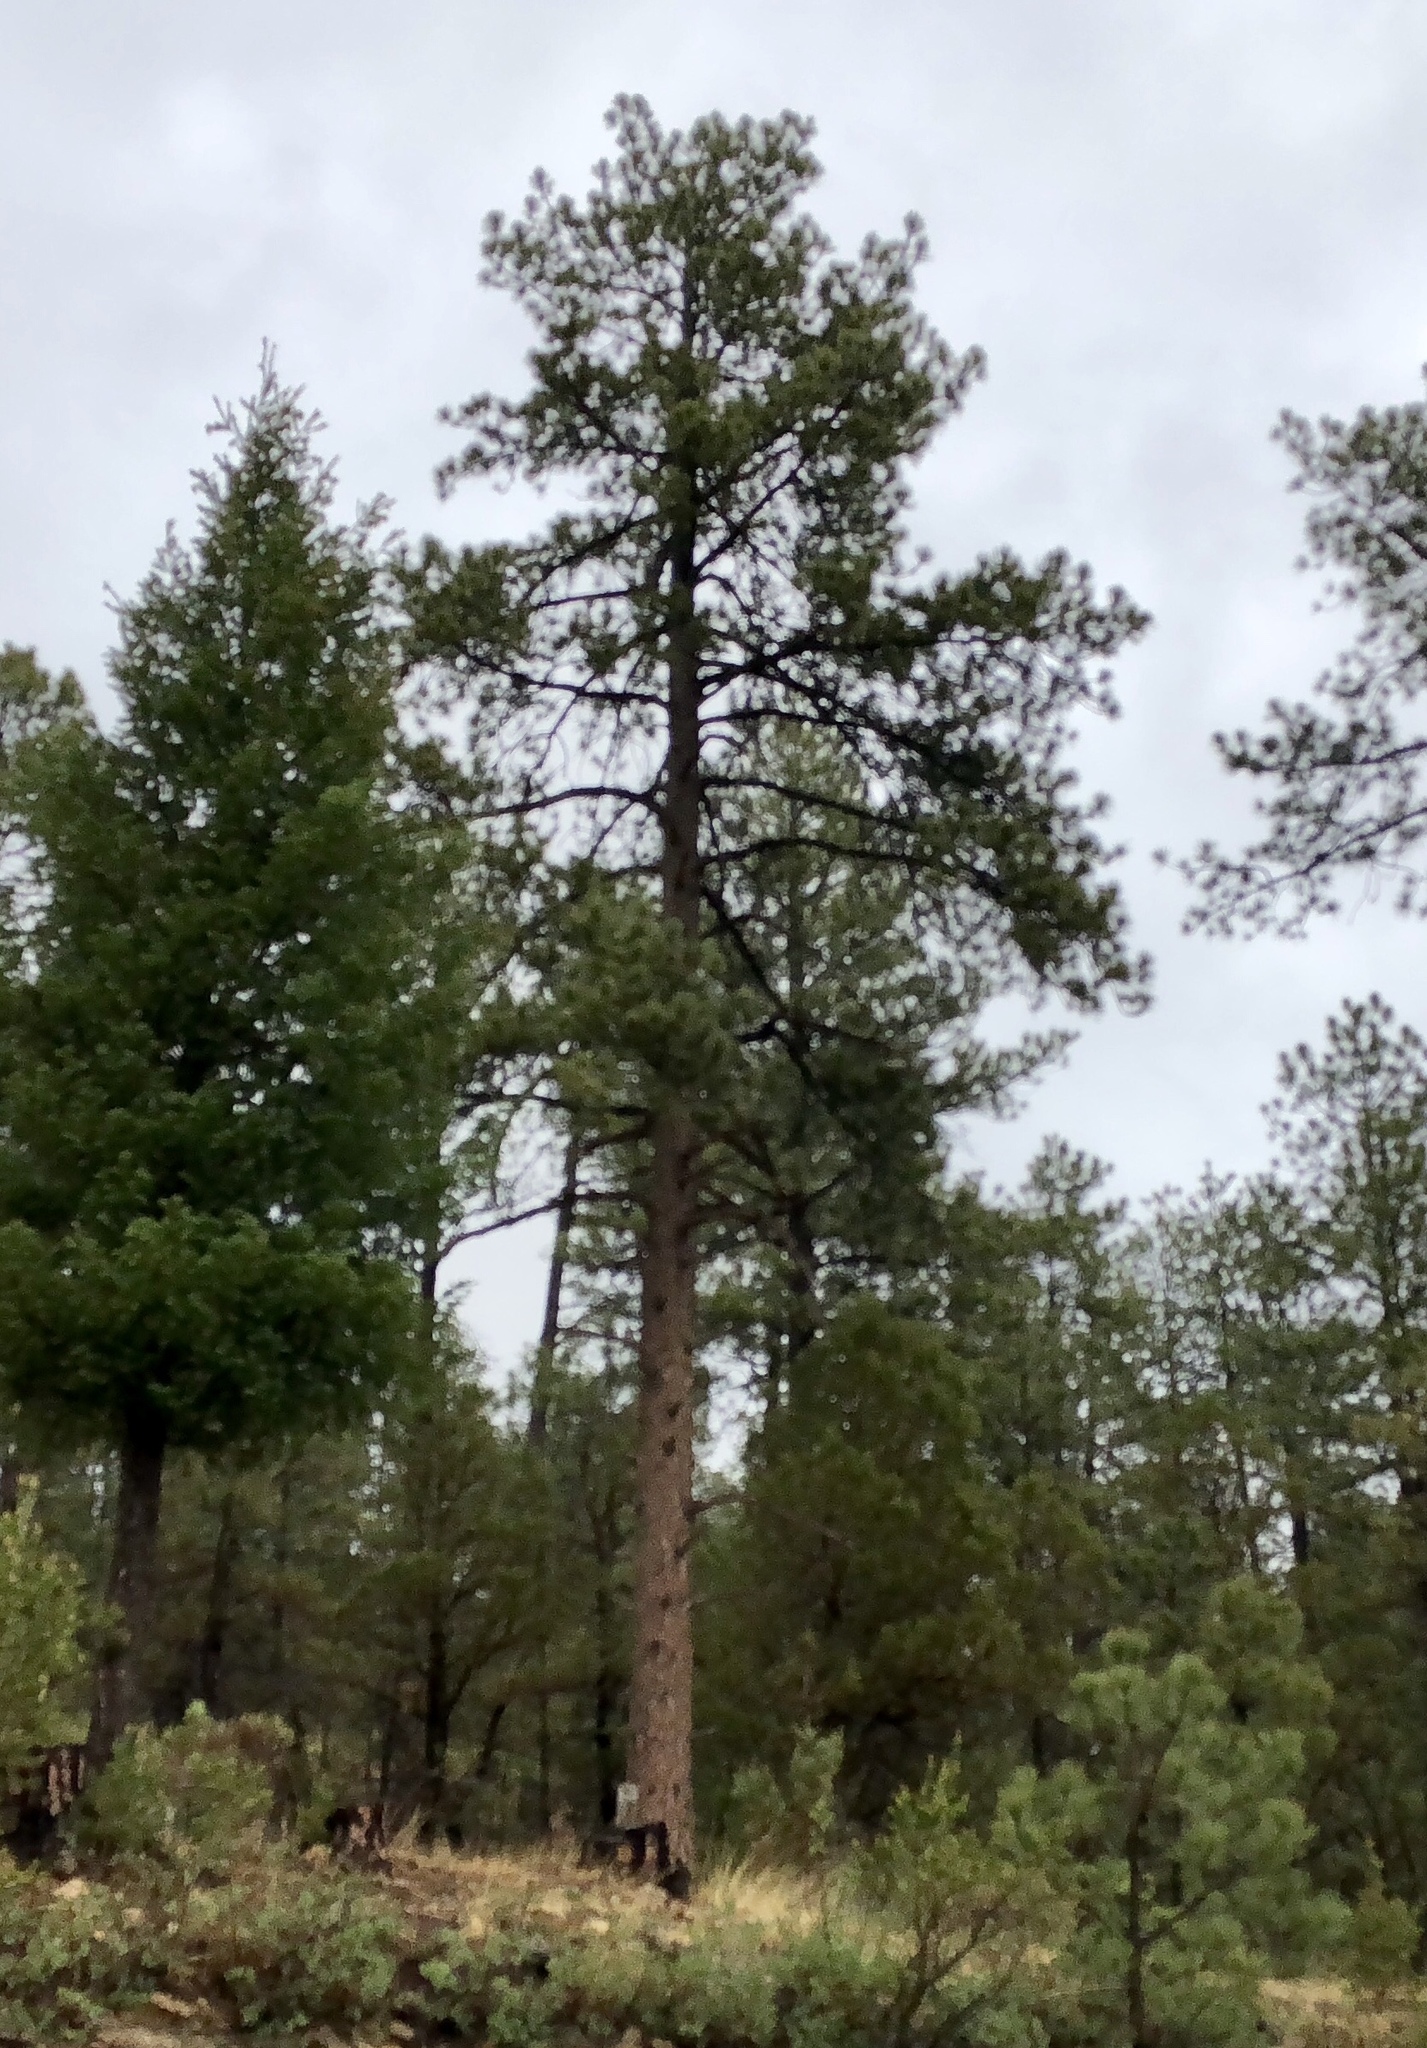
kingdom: Plantae
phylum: Tracheophyta
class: Pinopsida
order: Pinales
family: Pinaceae
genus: Pinus
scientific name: Pinus ponderosa
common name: Western yellow-pine
